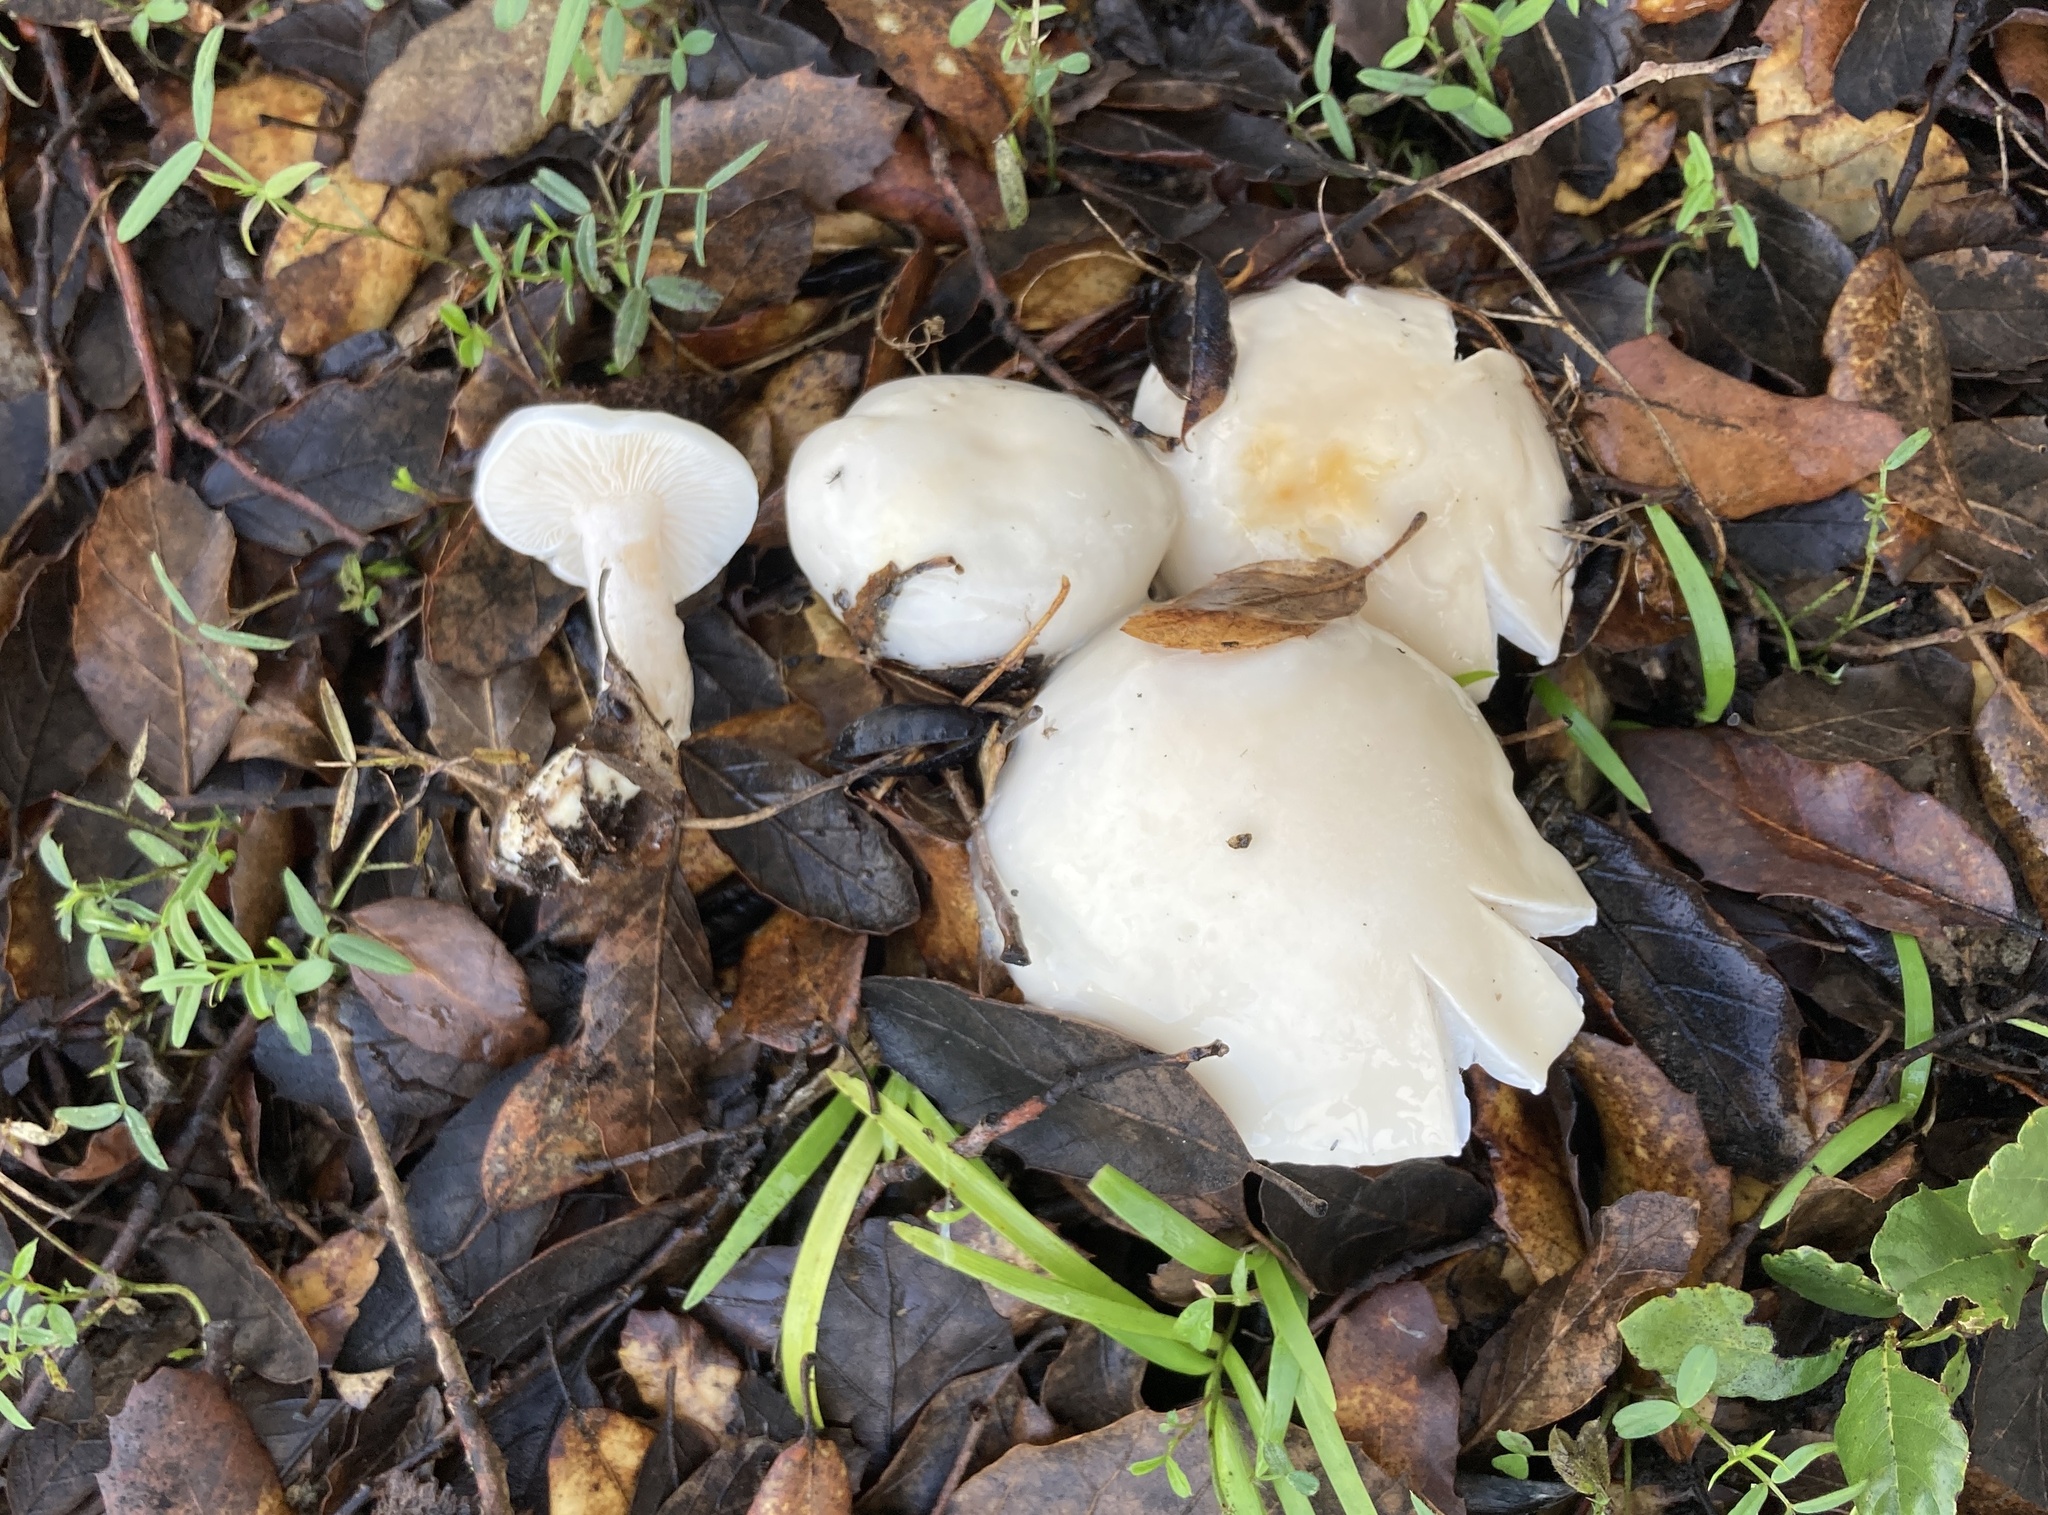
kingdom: Fungi
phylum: Basidiomycota
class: Agaricomycetes
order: Agaricales
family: Hygrophoraceae
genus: Hygrophorus
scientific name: Hygrophorus eburneus
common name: Ivory wax-cap
